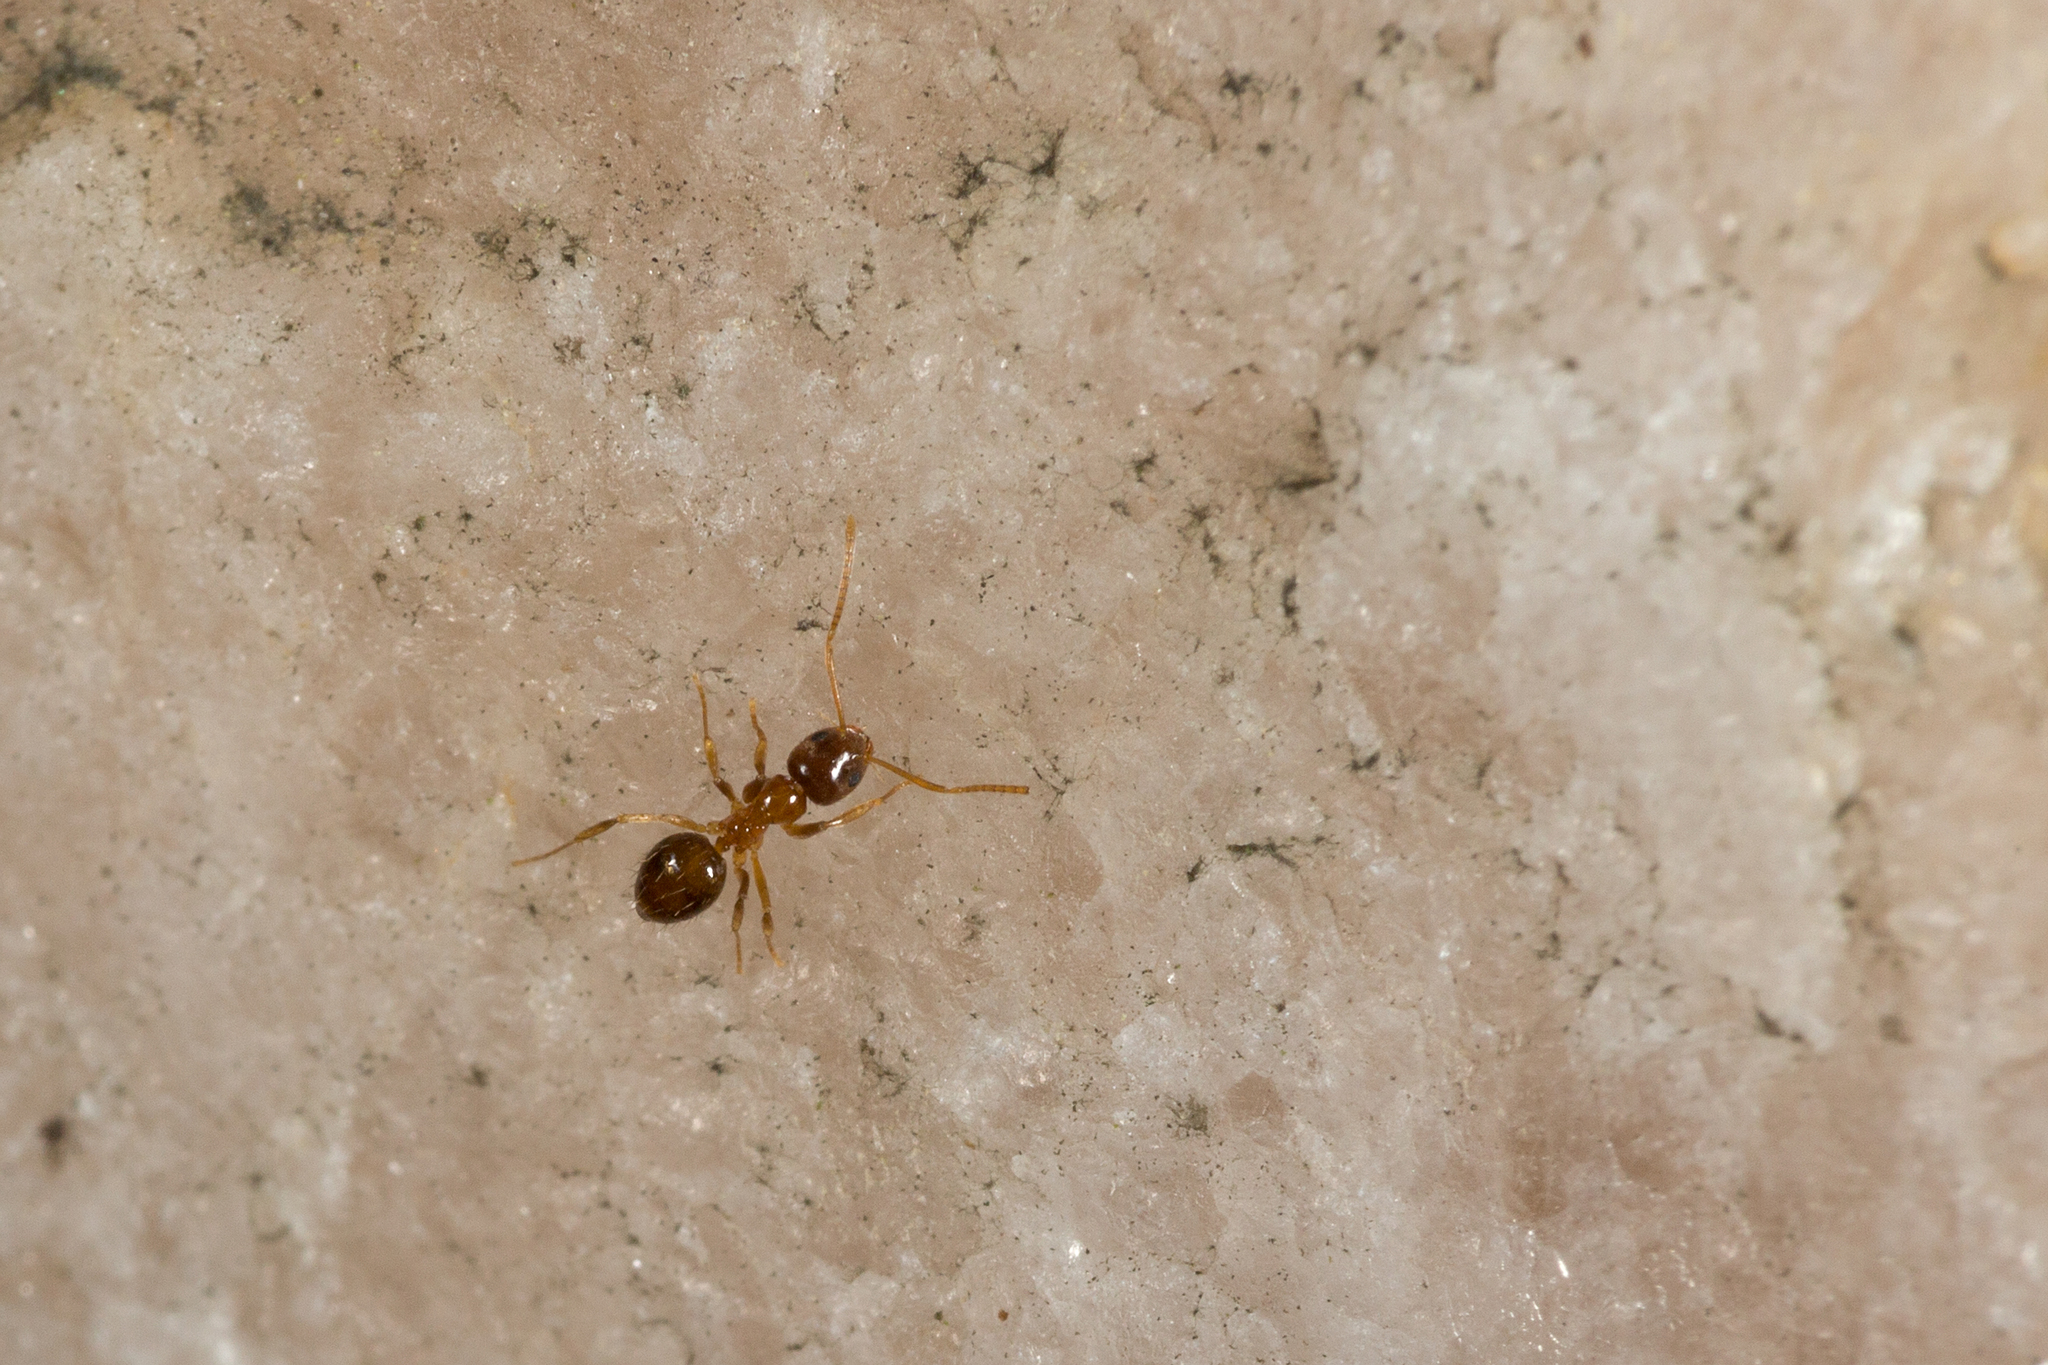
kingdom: Animalia
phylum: Arthropoda
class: Insecta
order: Hymenoptera
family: Formicidae
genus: Prenolepis
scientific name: Prenolepis imparis
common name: Small honey ant
